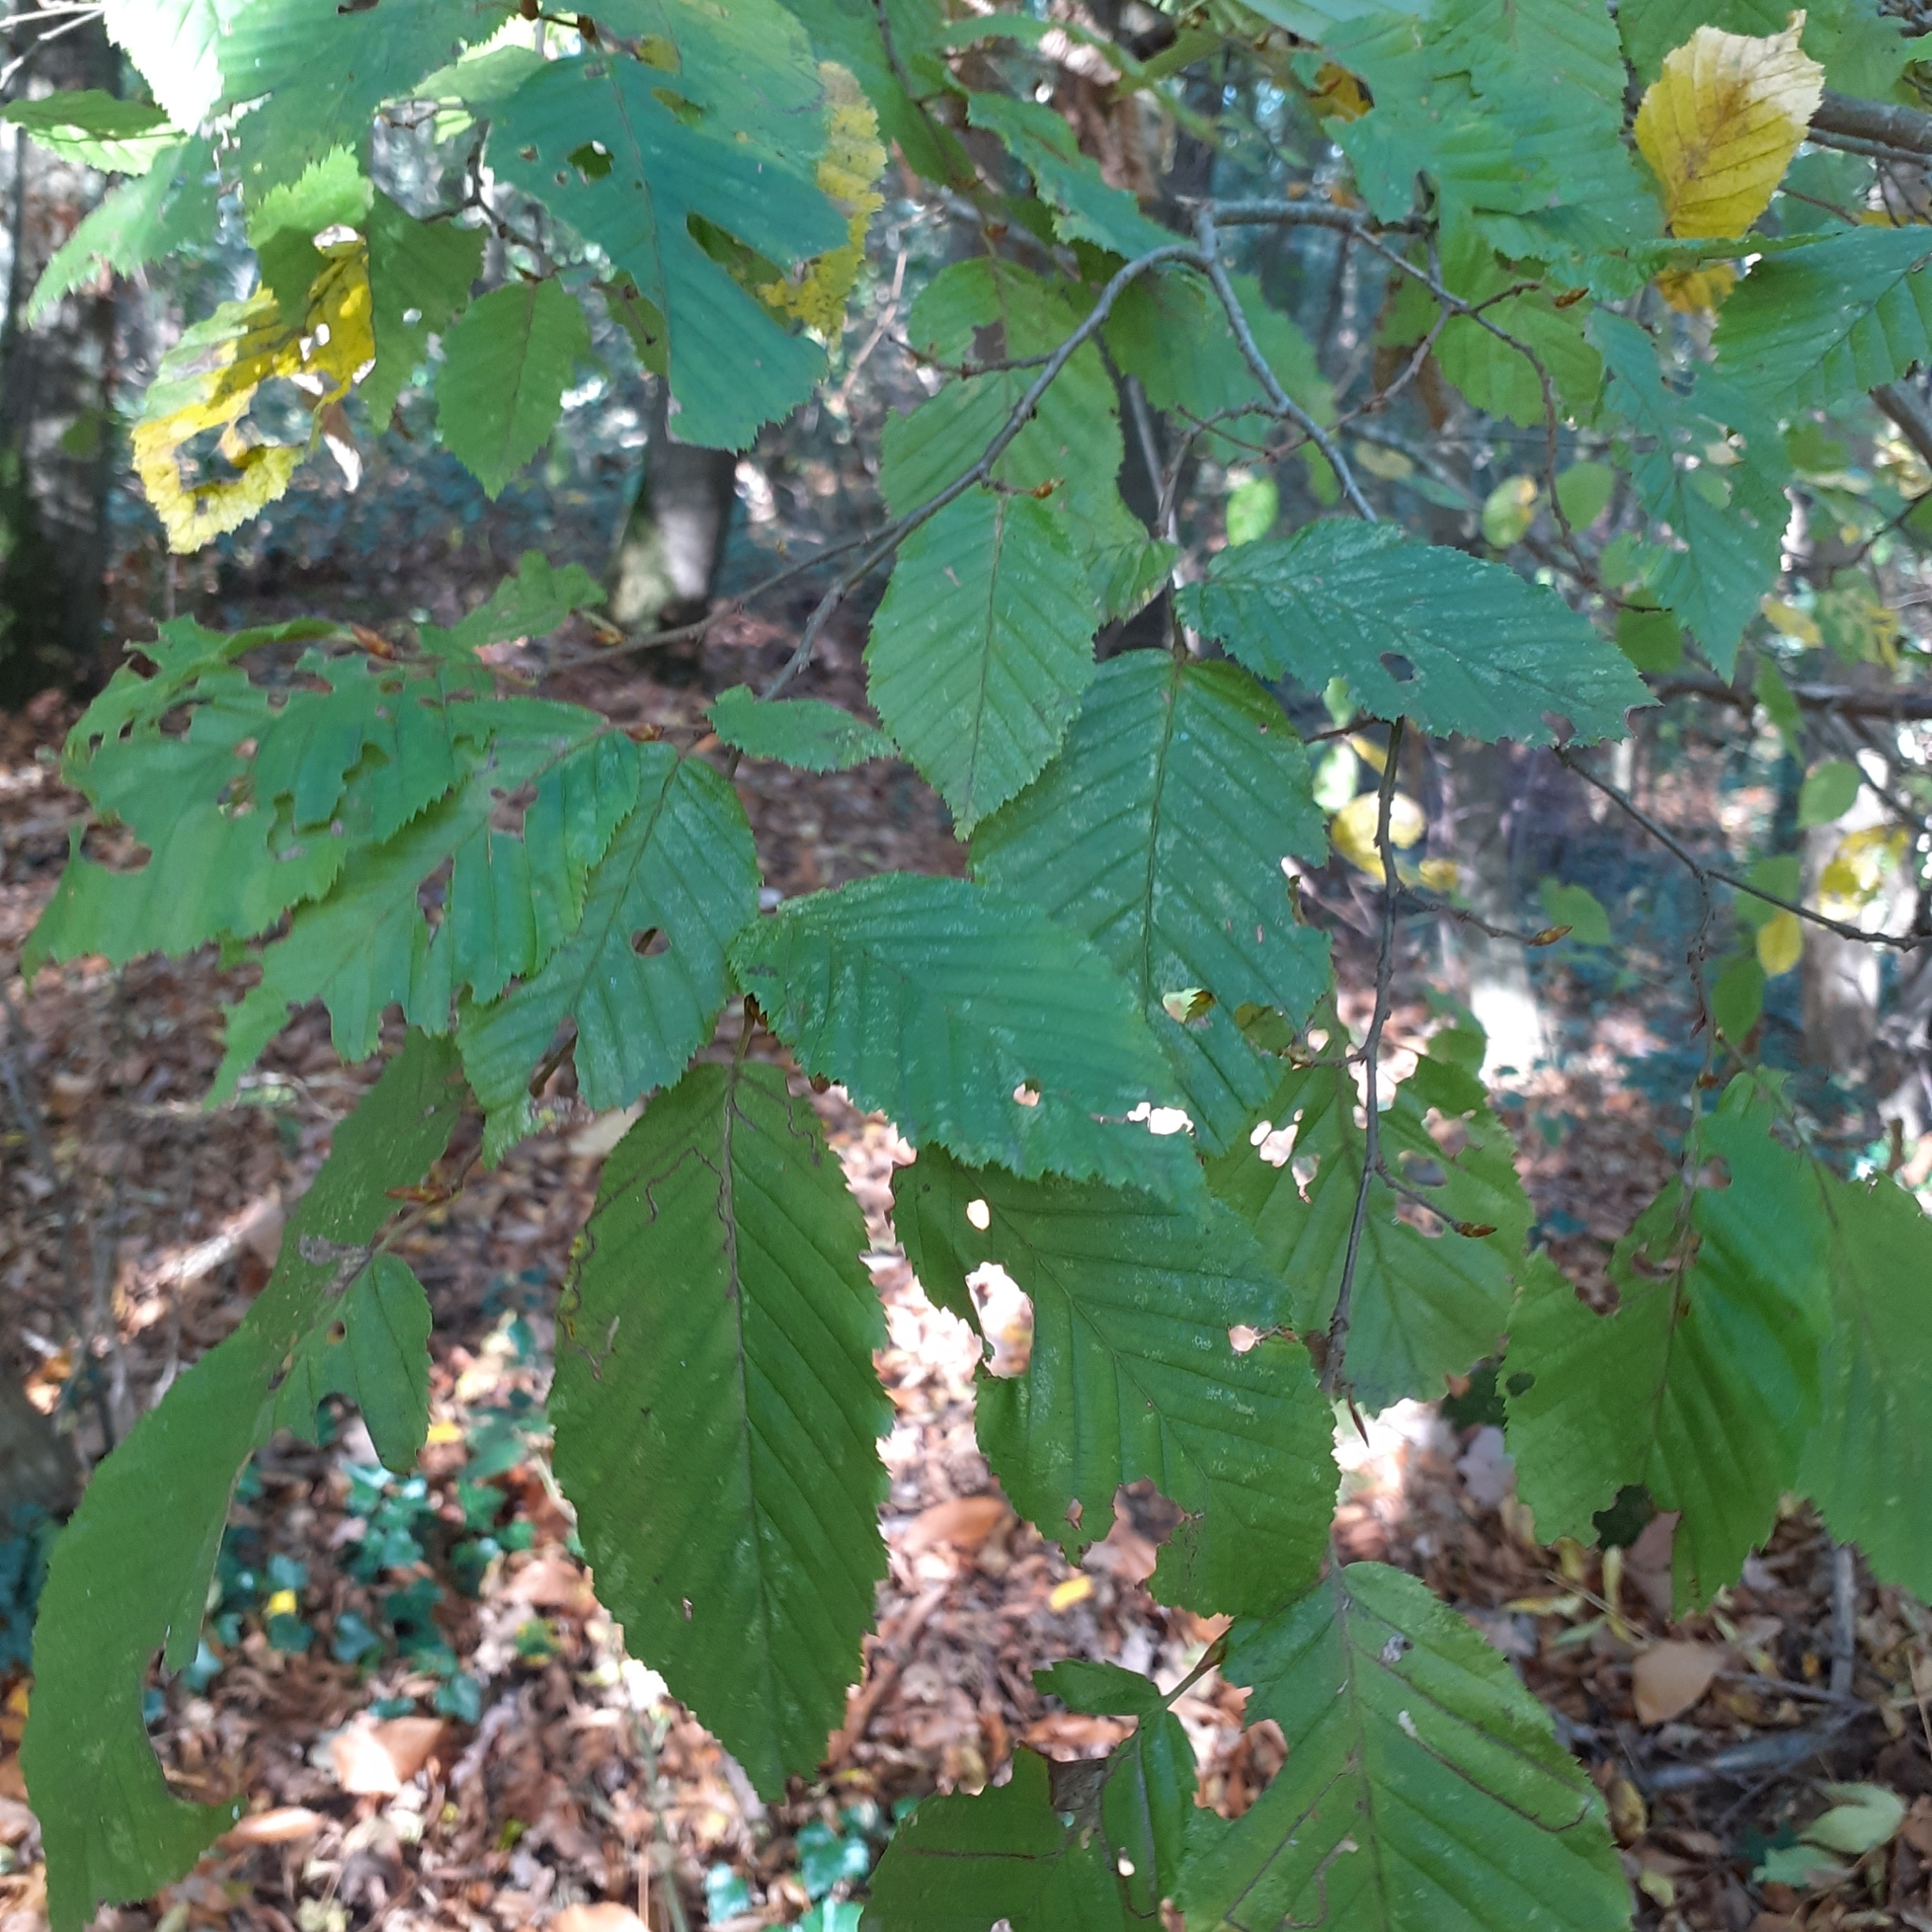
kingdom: Plantae
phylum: Tracheophyta
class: Magnoliopsida
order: Fagales
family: Betulaceae
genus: Carpinus
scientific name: Carpinus betulus
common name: Hornbeam
